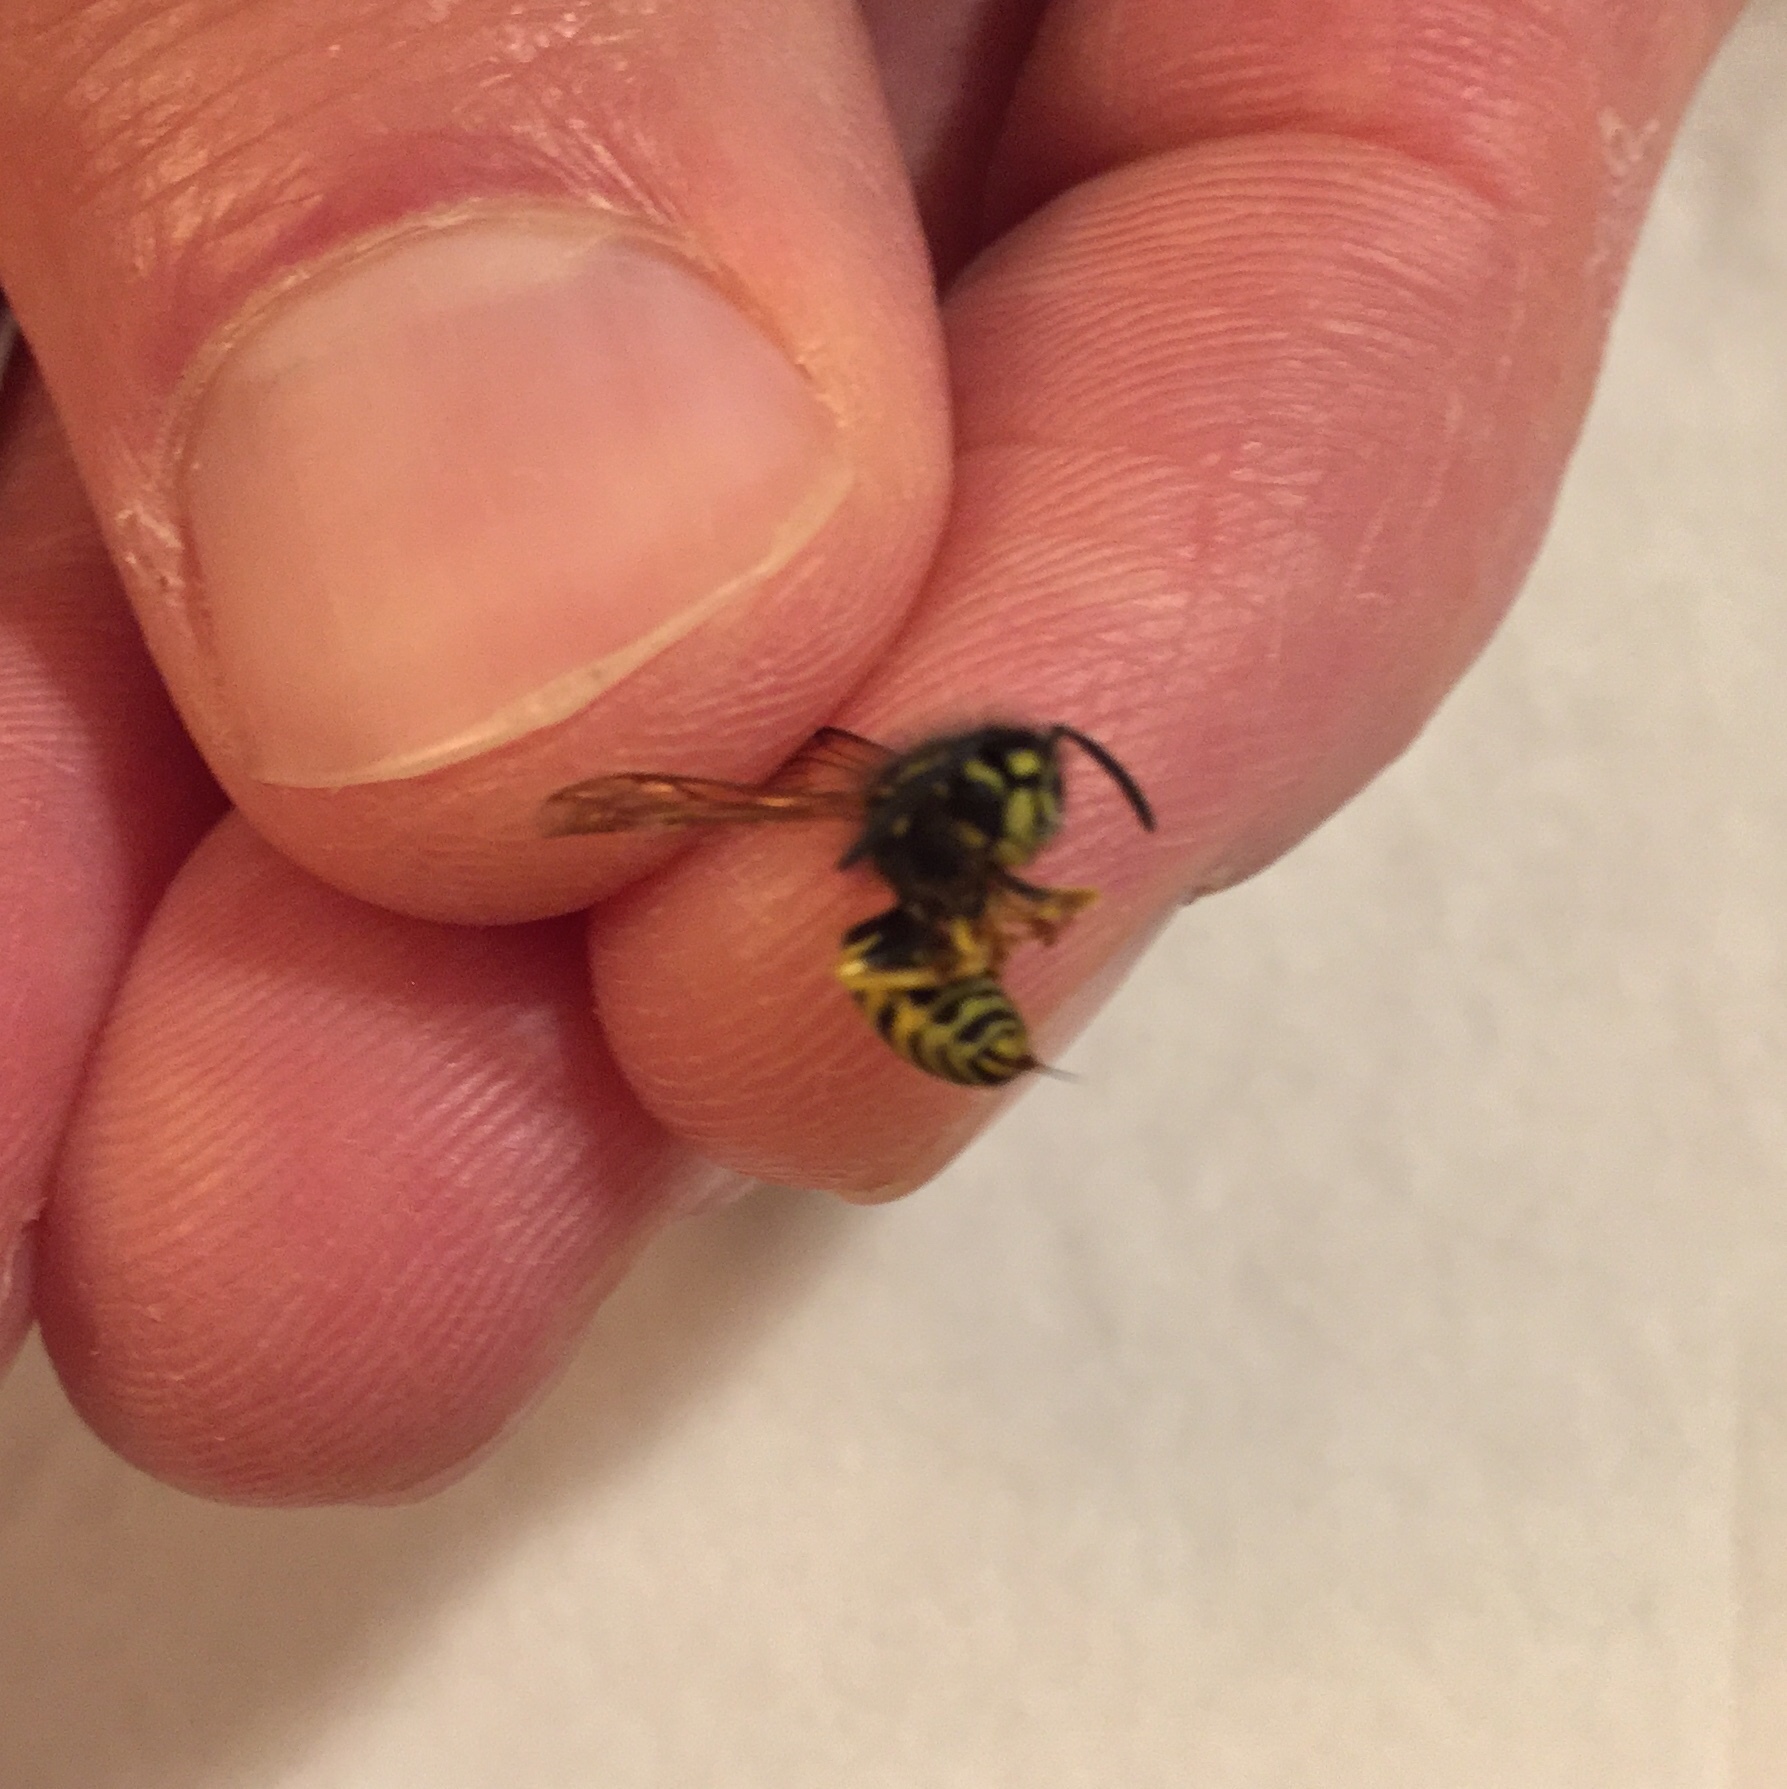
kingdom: Animalia
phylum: Arthropoda
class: Insecta
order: Hymenoptera
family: Vespidae
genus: Vespula
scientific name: Vespula alascensis
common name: Alaska yellowjacket
